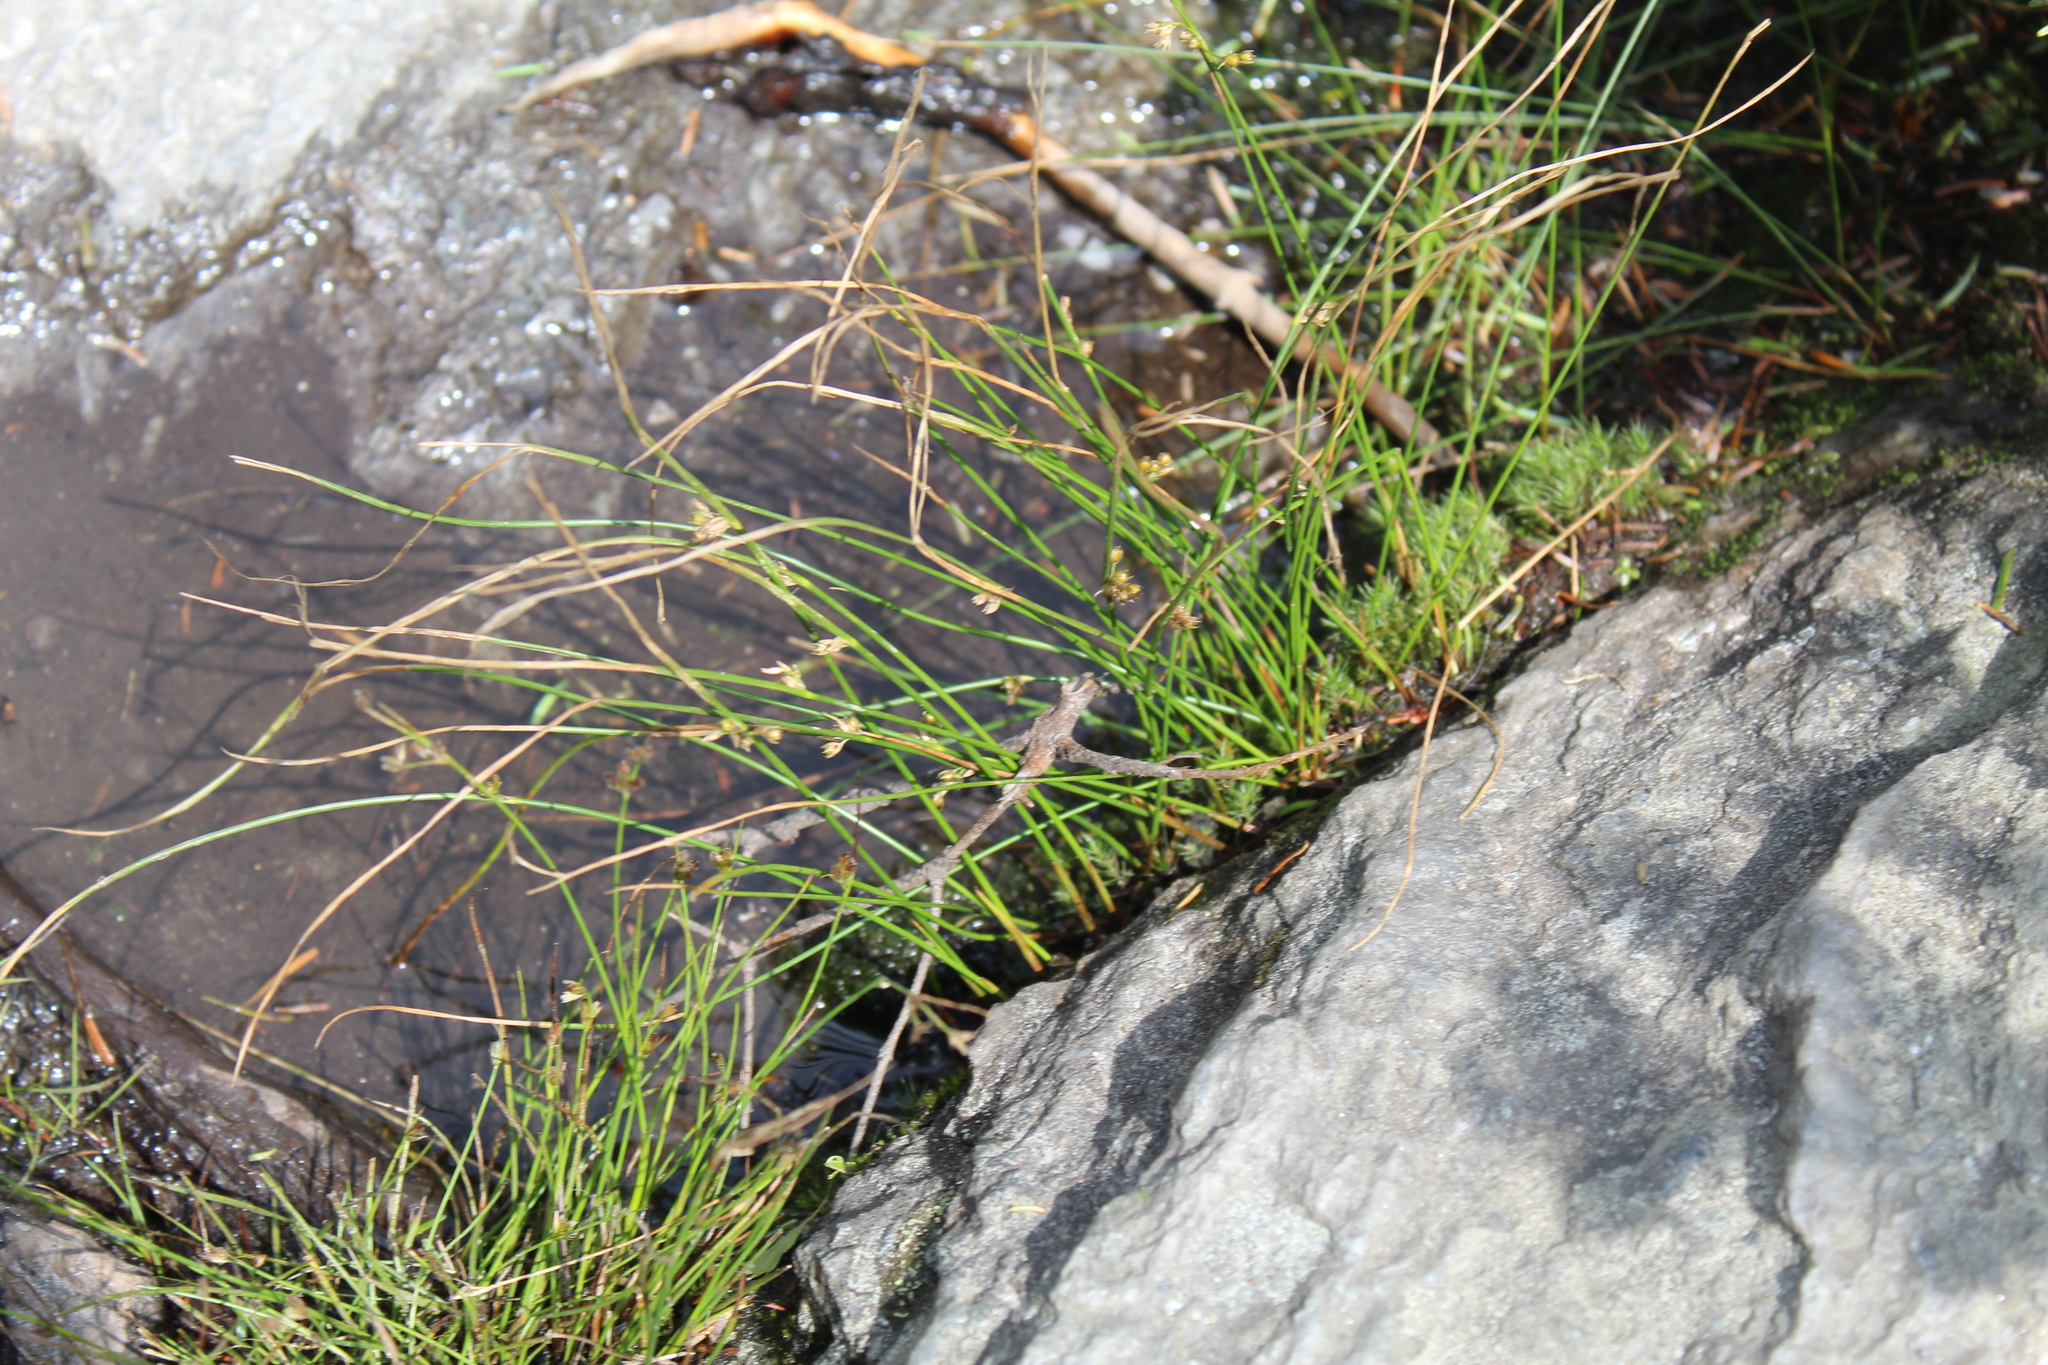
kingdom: Plantae
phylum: Tracheophyta
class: Liliopsida
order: Poales
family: Juncaceae
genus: Juncus
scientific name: Juncus filiformis
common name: Thread rush
